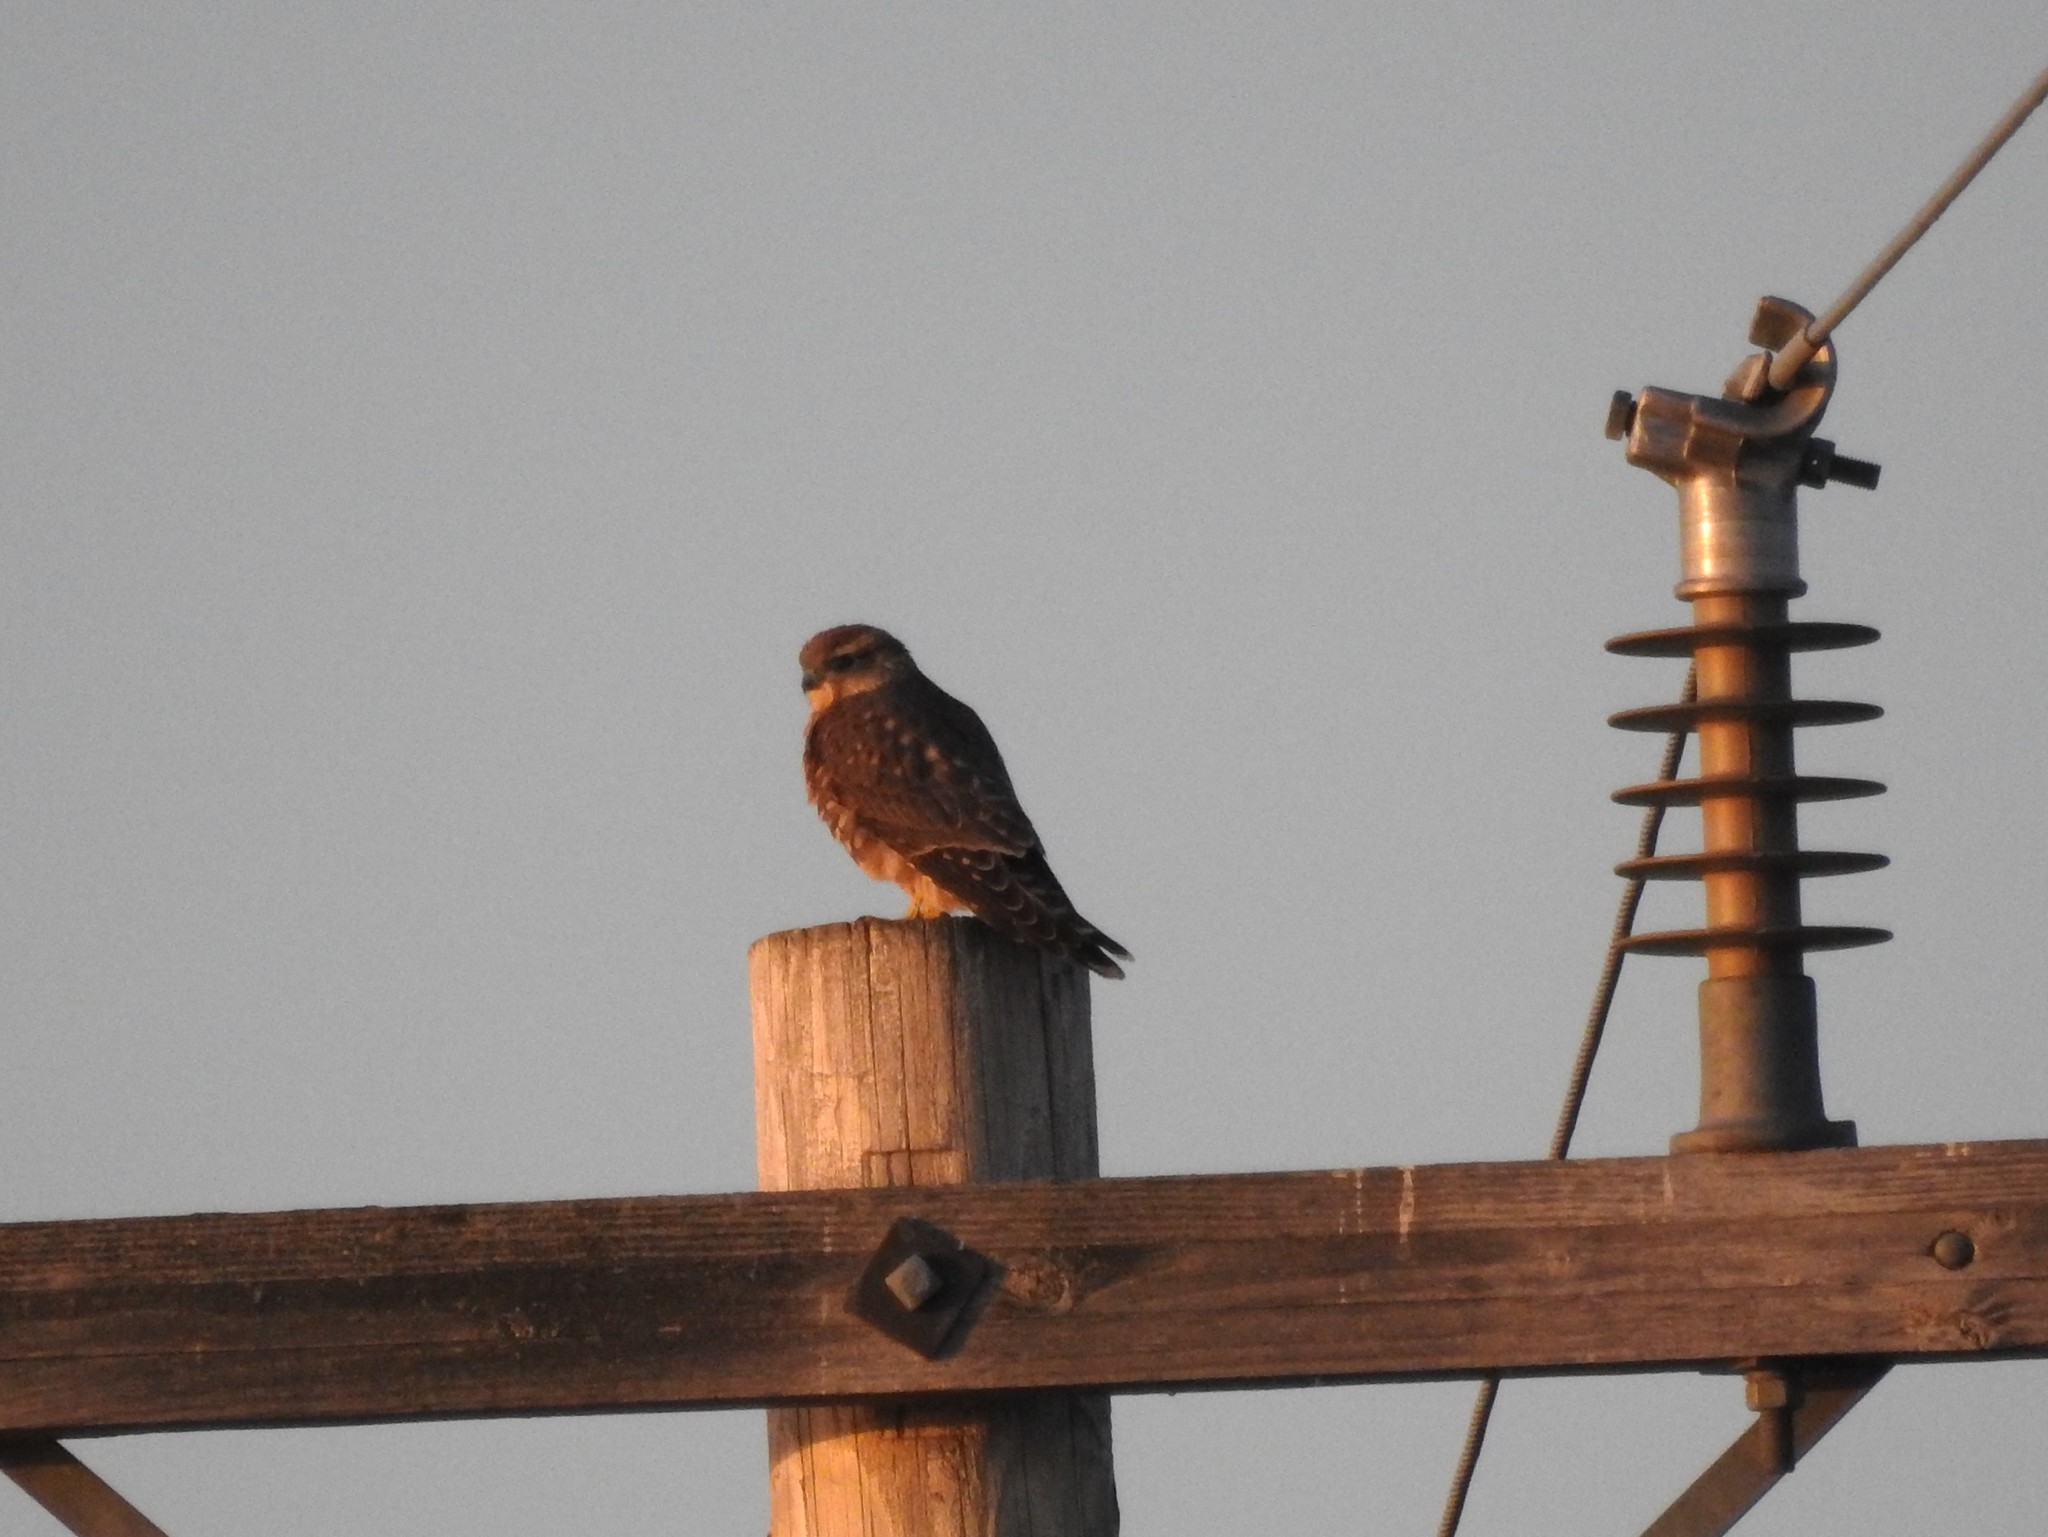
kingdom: Animalia
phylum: Chordata
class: Aves
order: Falconiformes
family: Falconidae
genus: Falco
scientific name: Falco columbarius
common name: Merlin
